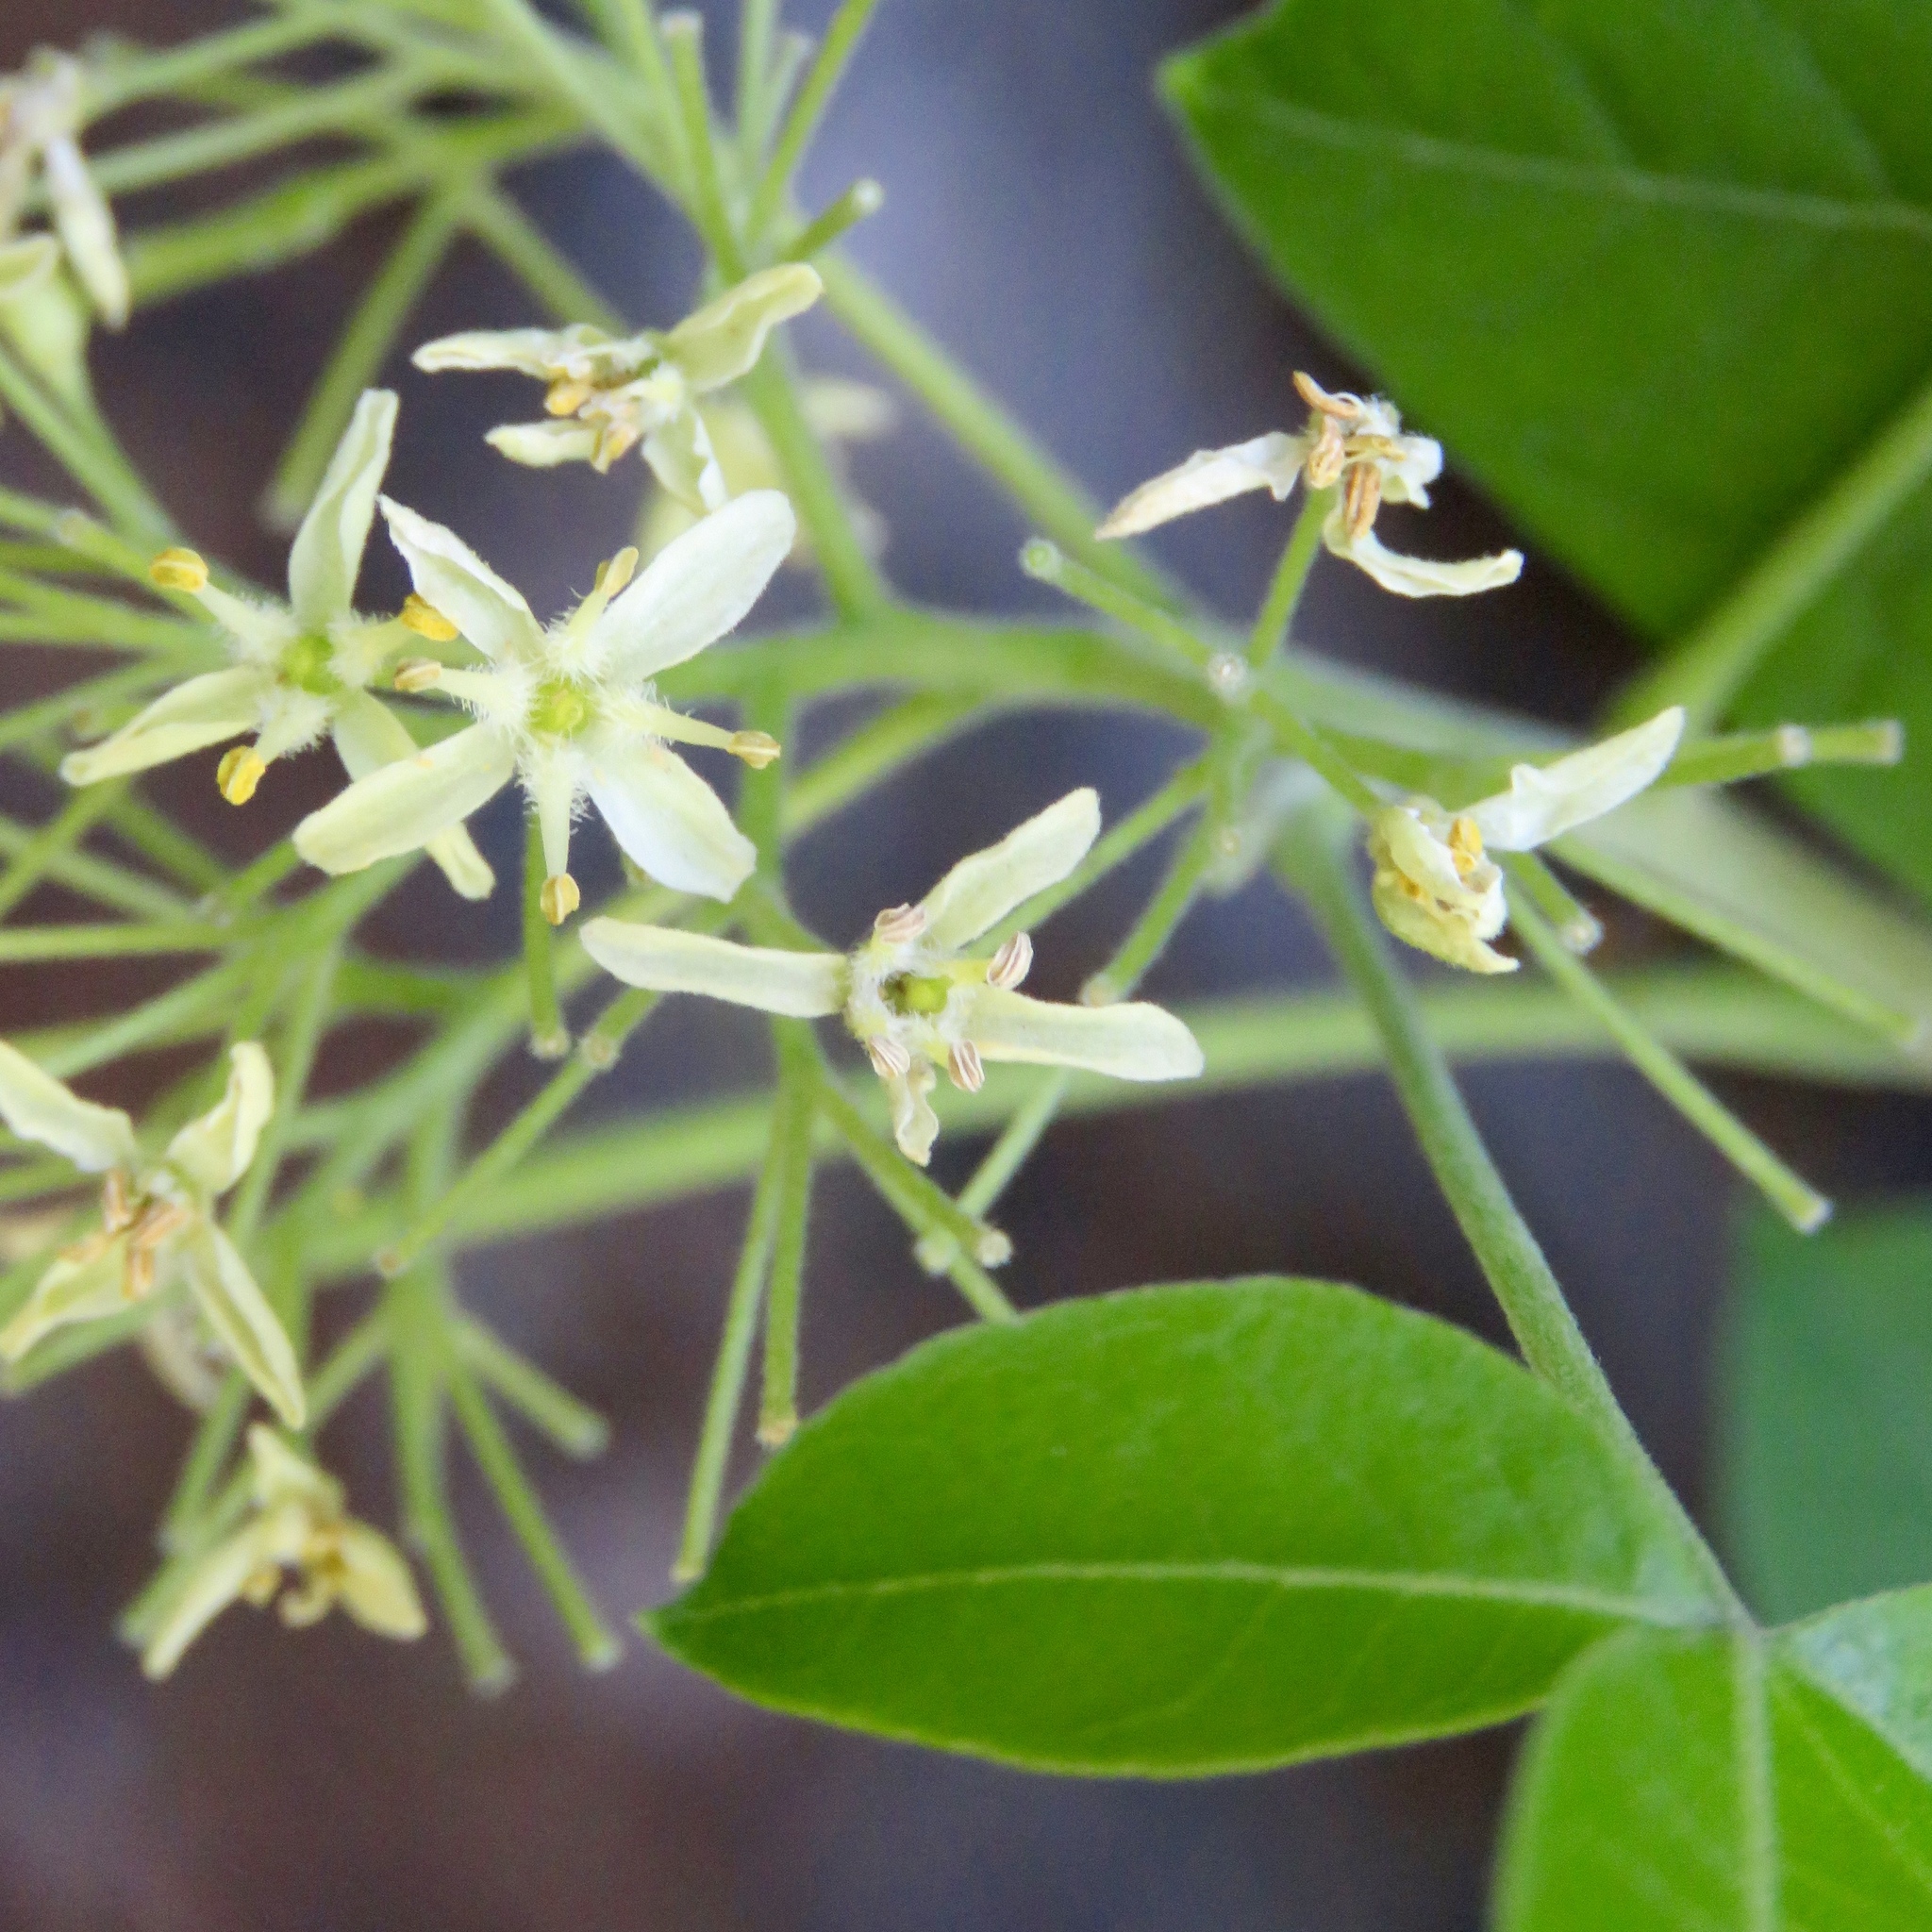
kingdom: Plantae
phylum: Tracheophyta
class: Magnoliopsida
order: Sapindales
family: Rutaceae
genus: Ptelea
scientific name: Ptelea trifoliata
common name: Common hop-tree
